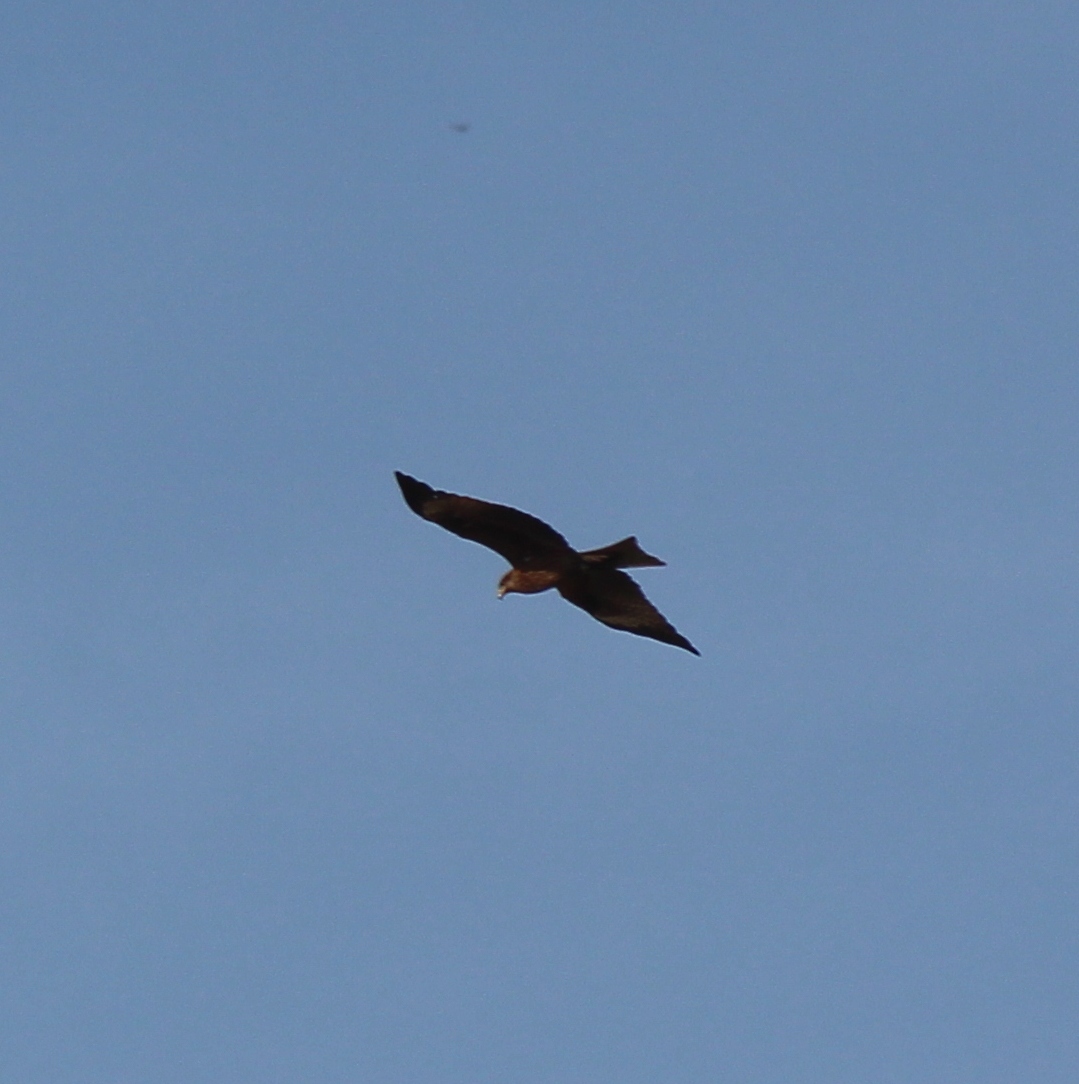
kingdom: Animalia
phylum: Chordata
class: Aves
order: Accipitriformes
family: Accipitridae
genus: Milvus
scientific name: Milvus migrans
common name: Black kite
